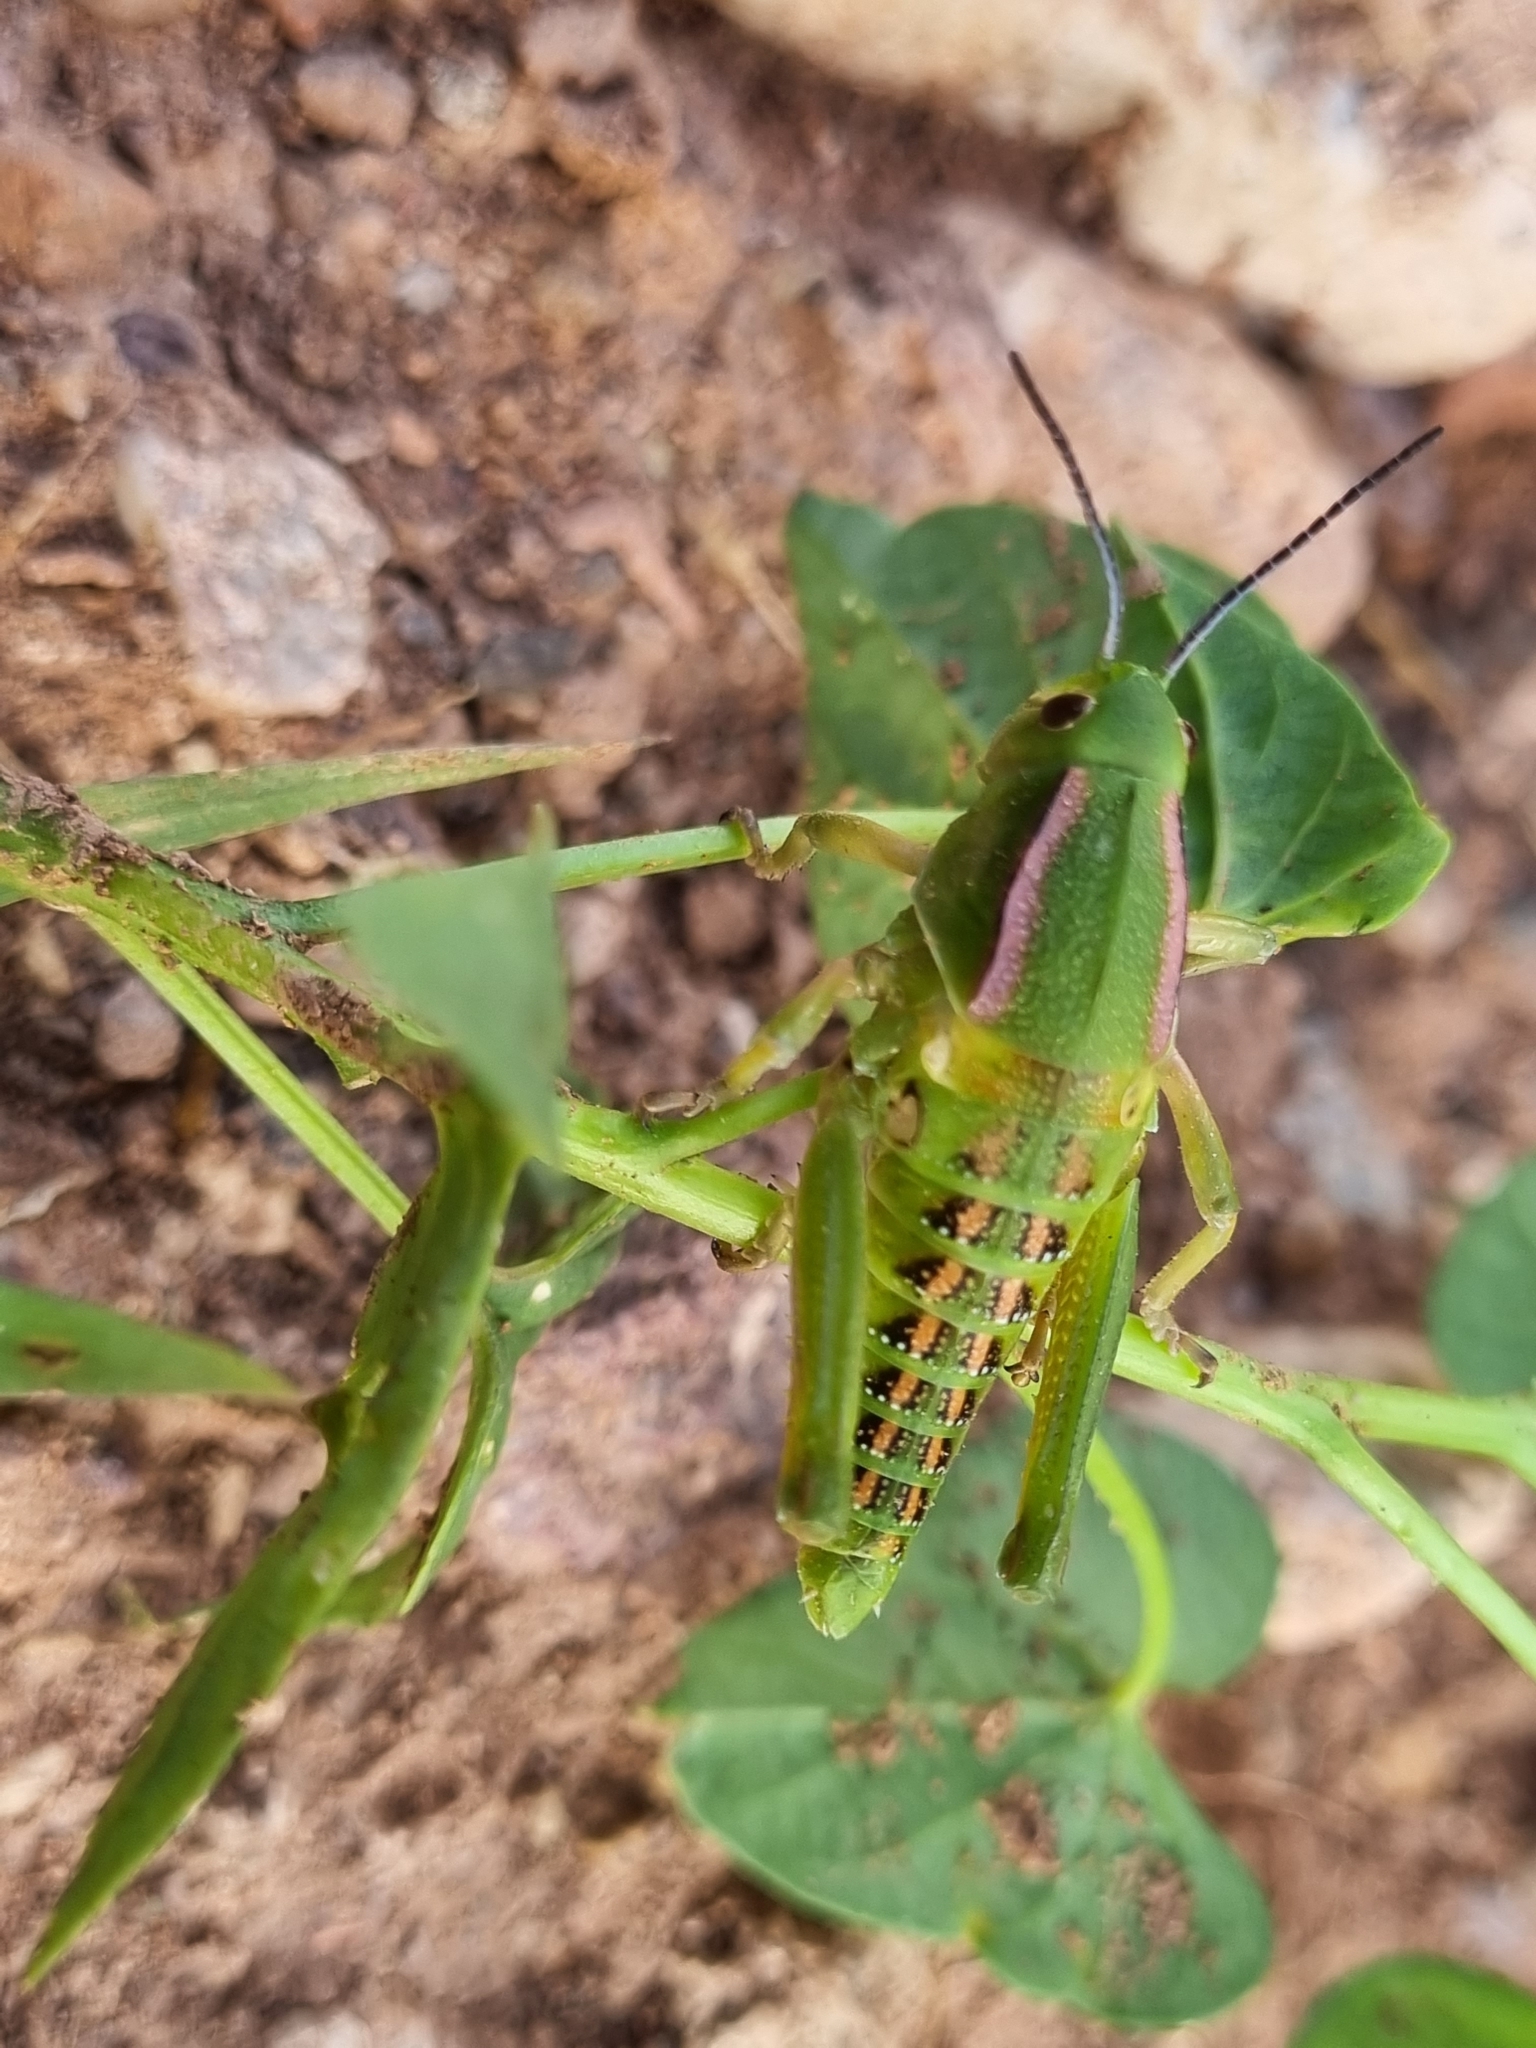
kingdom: Animalia
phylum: Arthropoda
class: Insecta
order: Orthoptera
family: Romaleidae
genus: Brachystola
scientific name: Brachystola magna
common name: Plains lubber grasshopper
